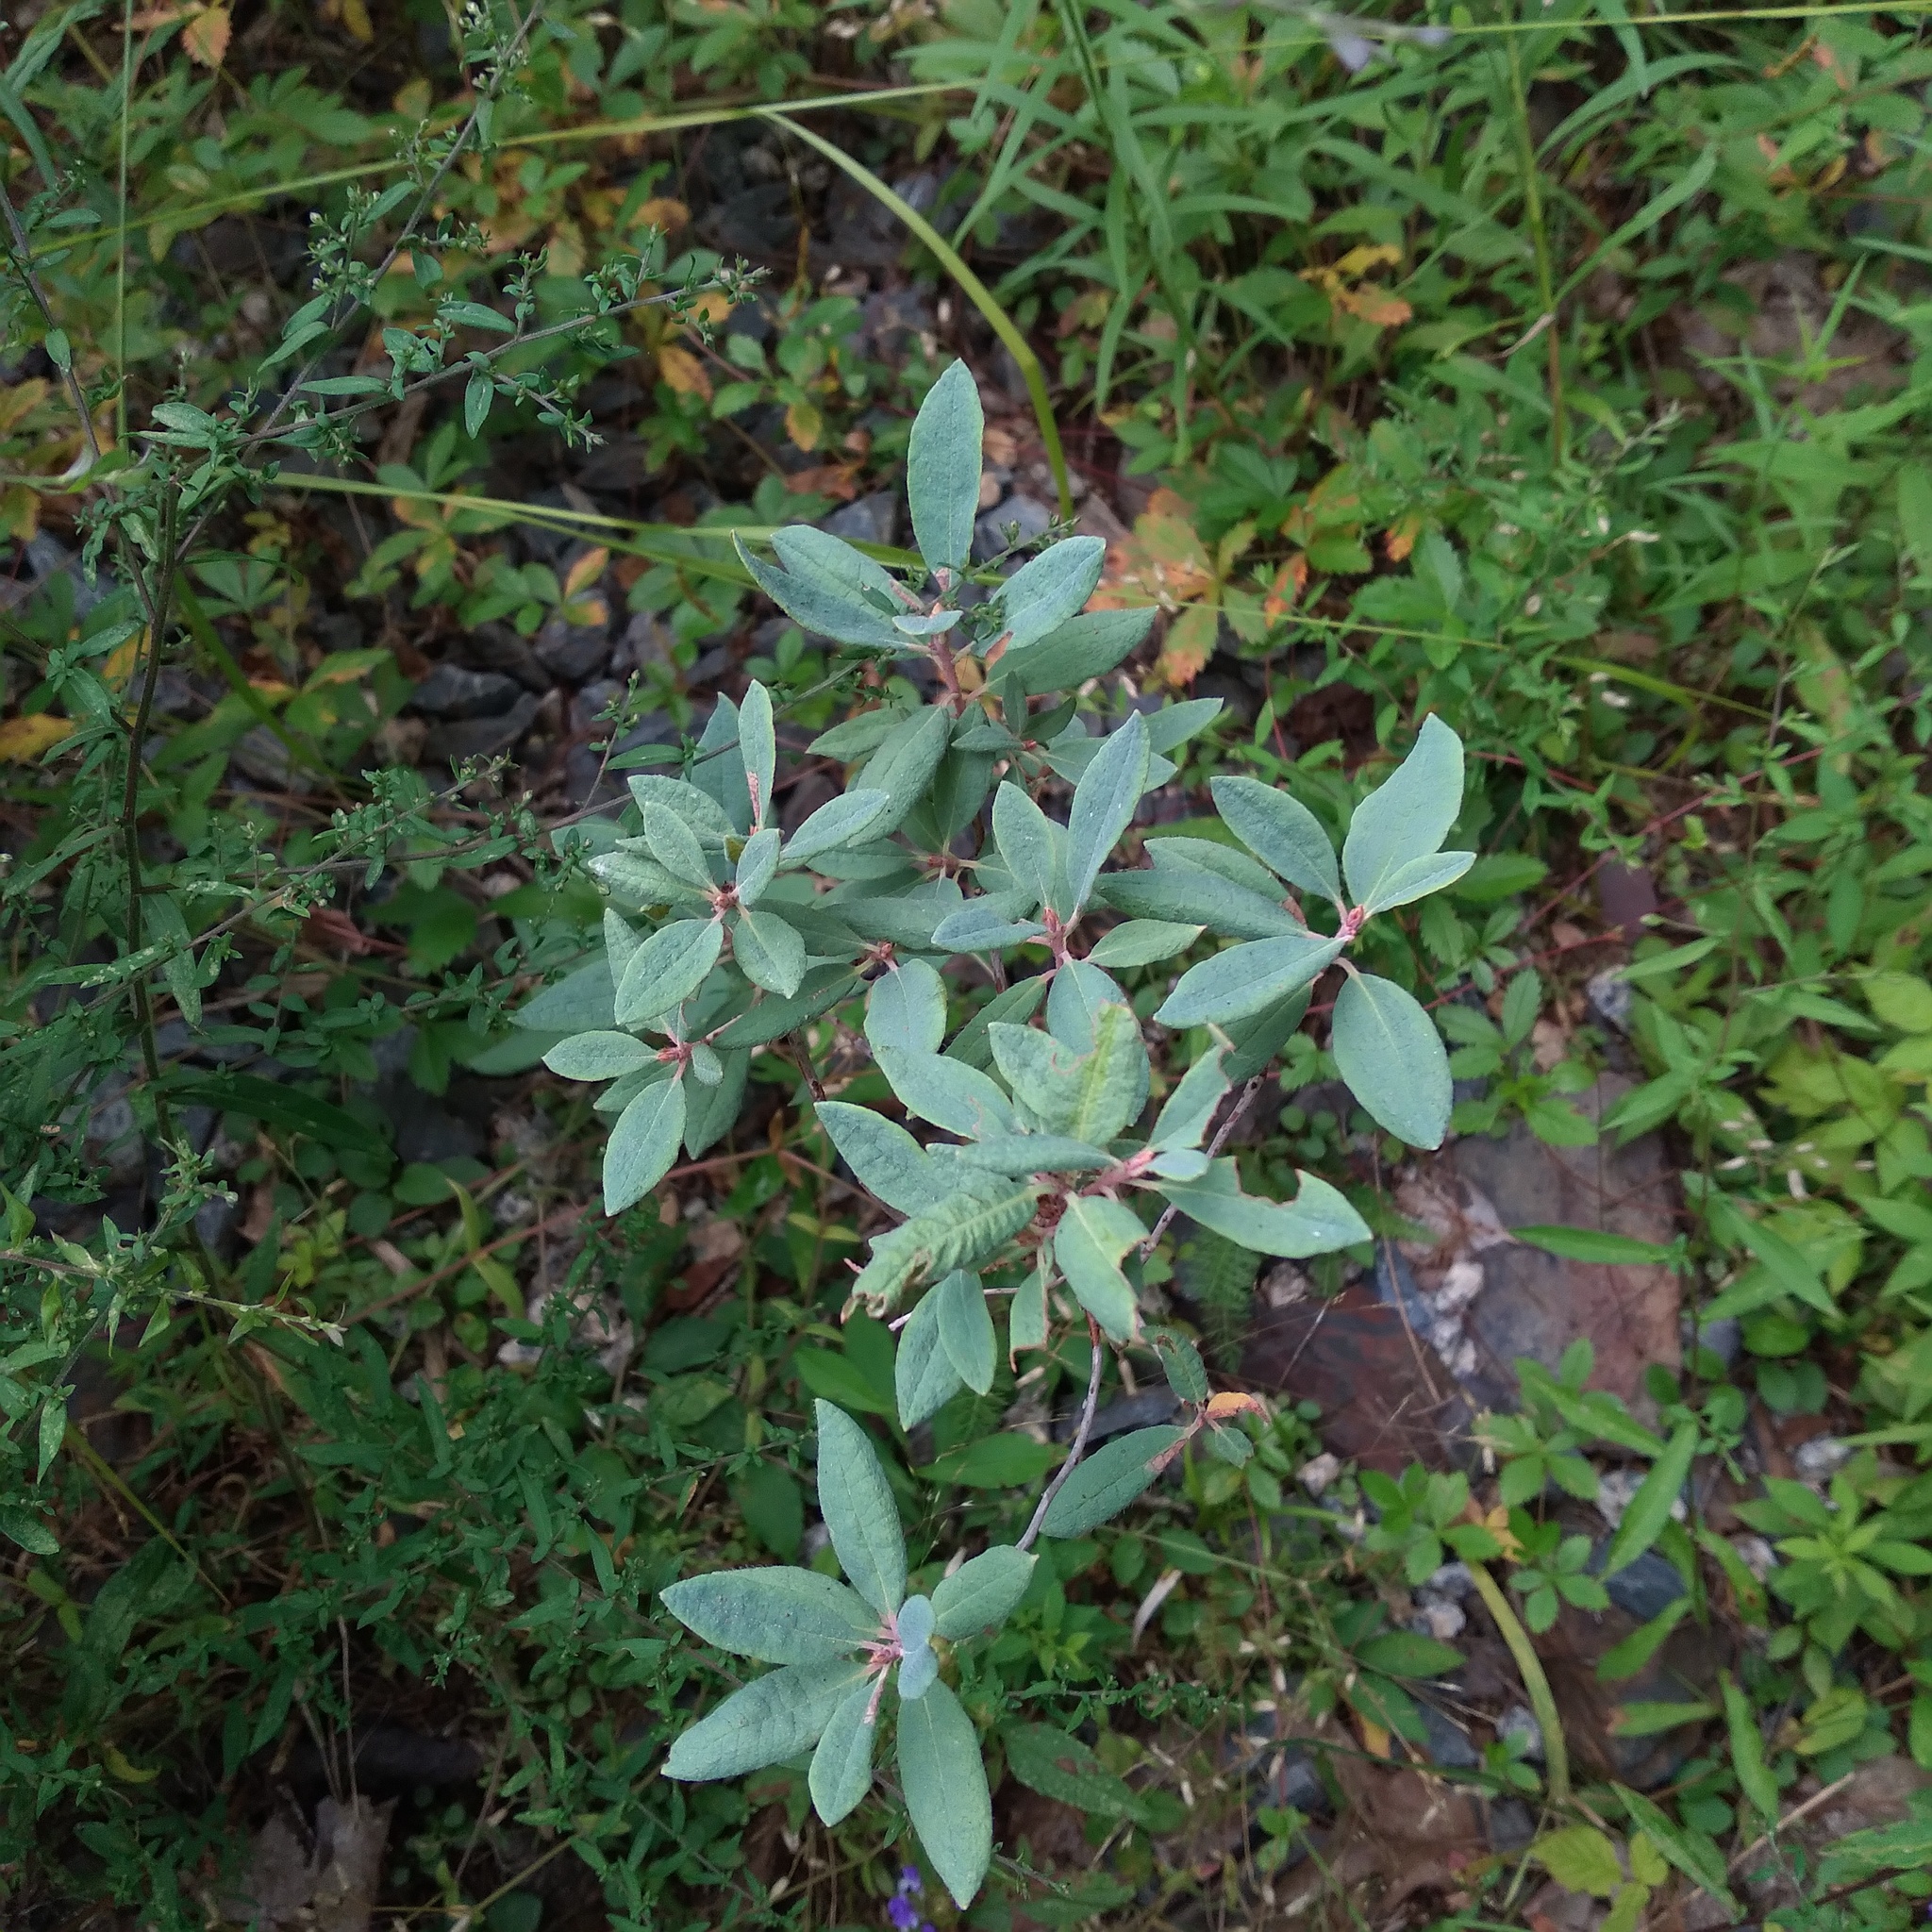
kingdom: Plantae
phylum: Tracheophyta
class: Magnoliopsida
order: Ericales
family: Ericaceae
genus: Rhododendron
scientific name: Rhododendron canadense
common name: Rhodora
